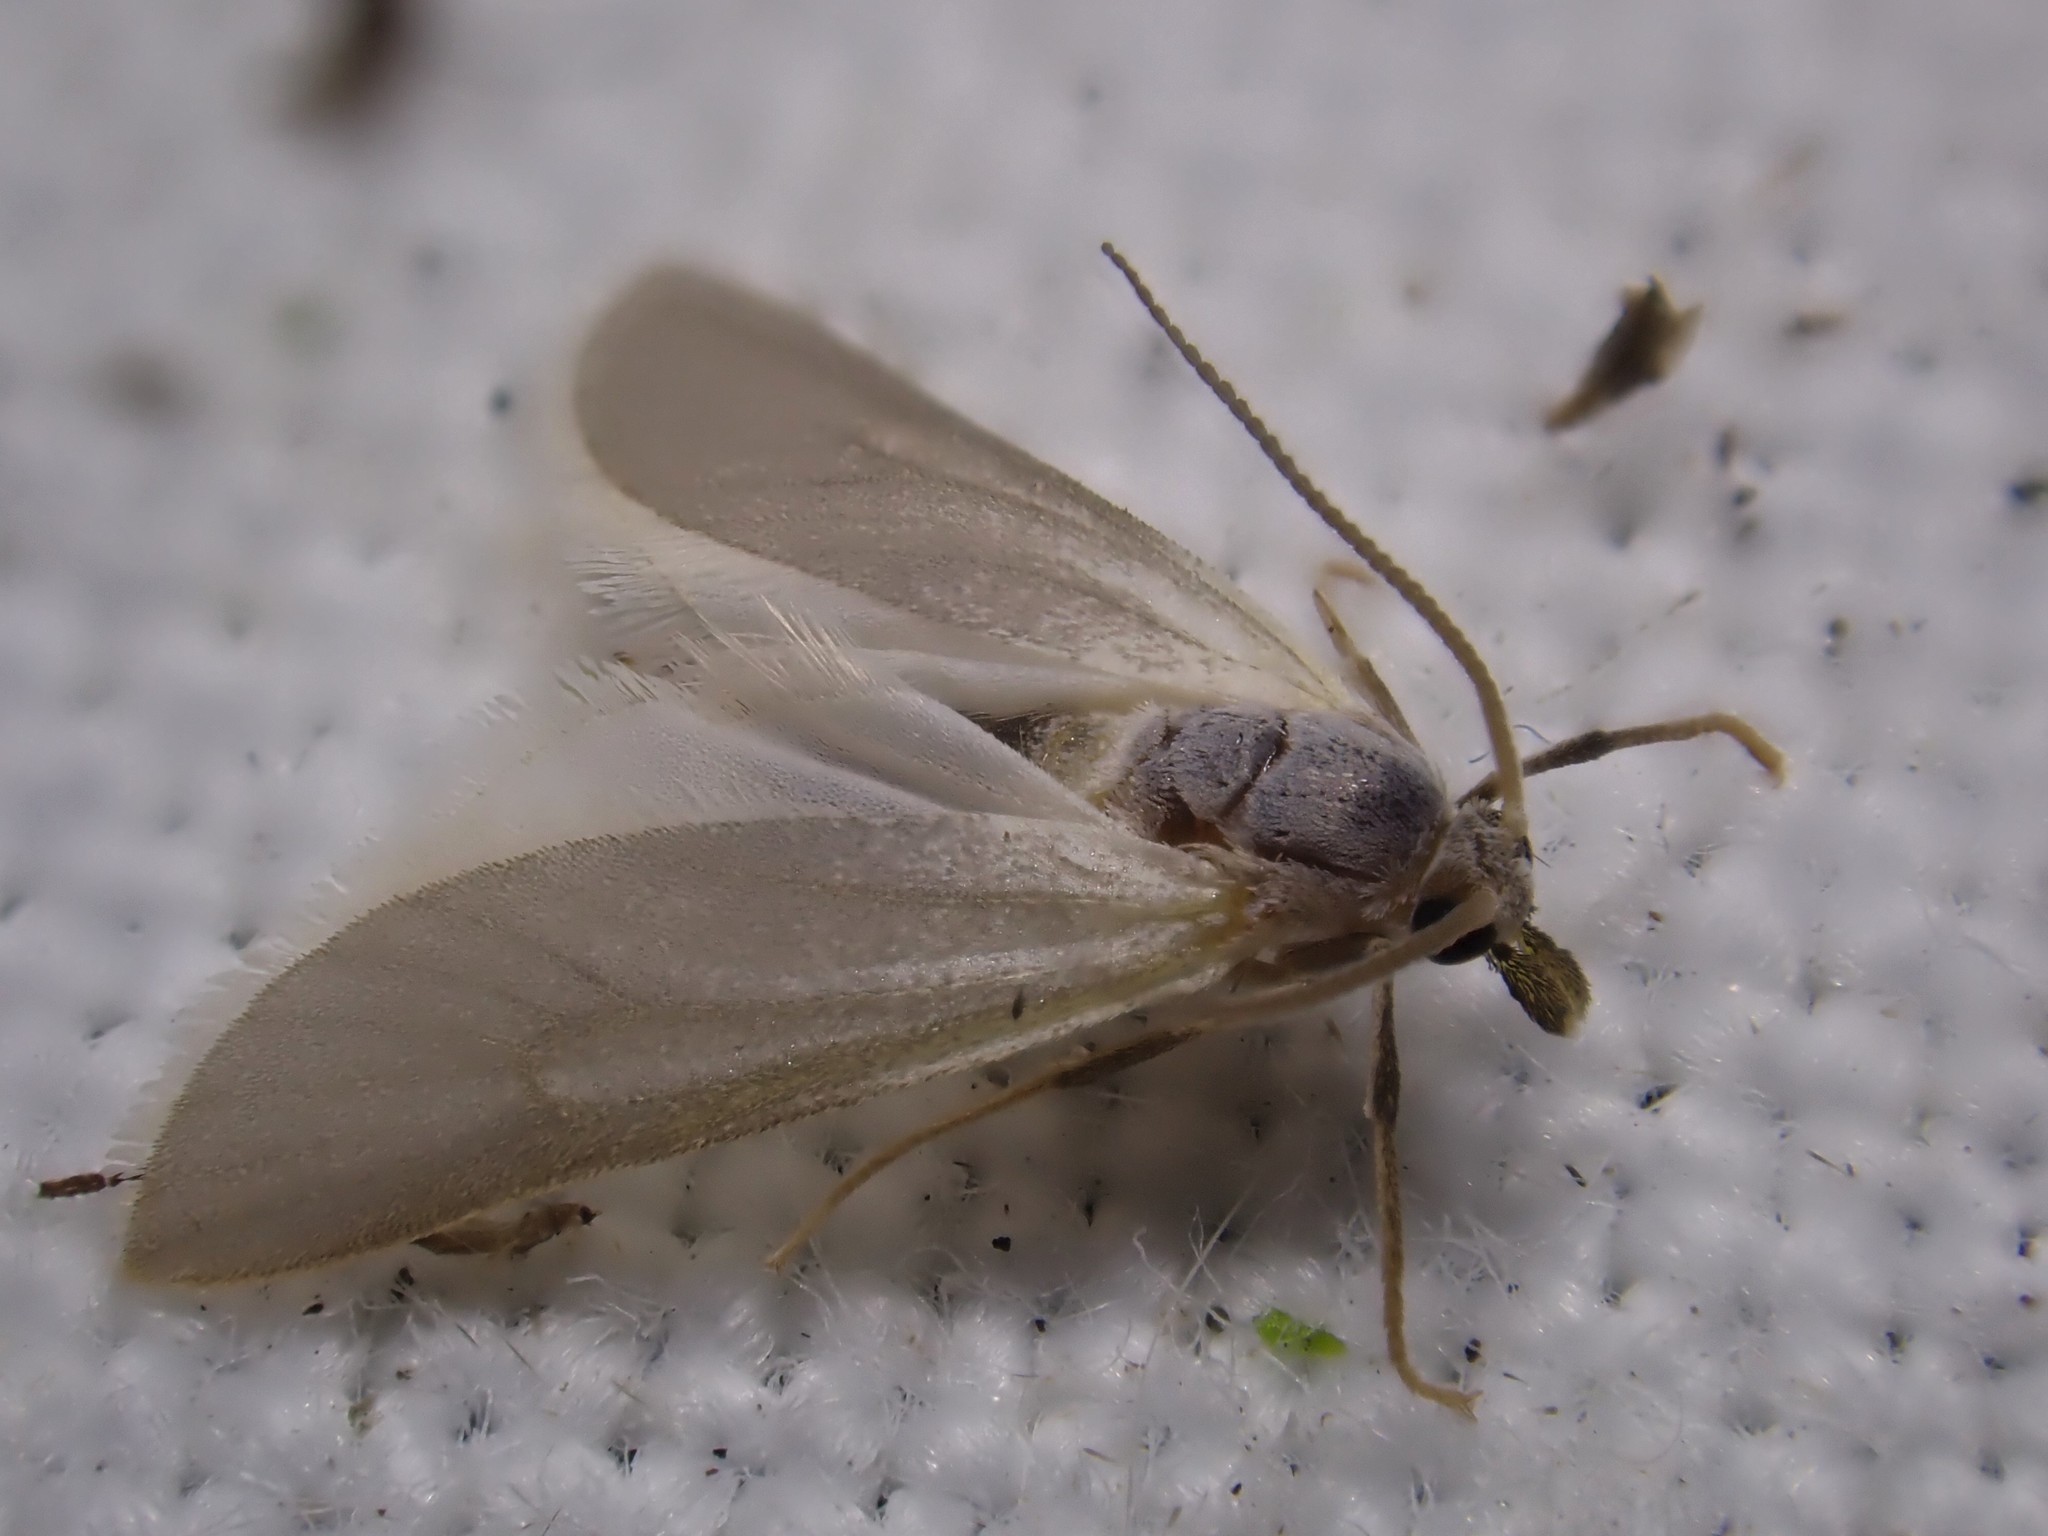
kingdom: Animalia
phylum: Arthropoda
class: Insecta
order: Lepidoptera
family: Crambidae
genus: Acentria
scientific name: Acentria ephemerella
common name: European water moth
